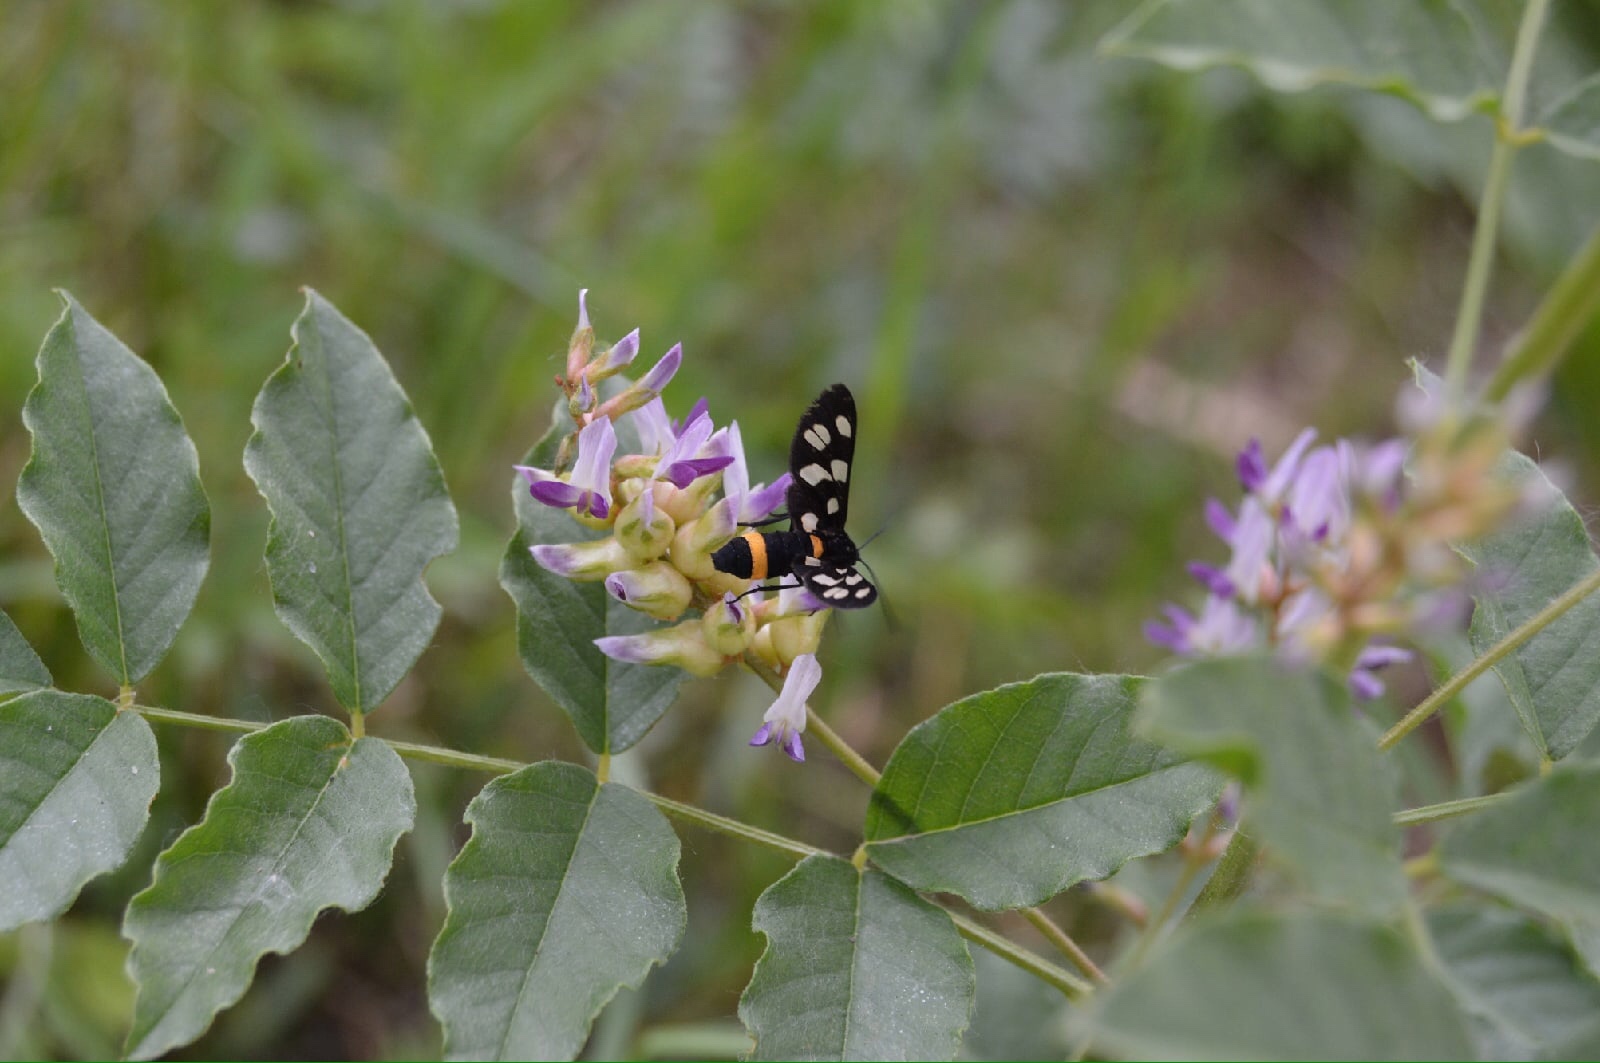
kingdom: Animalia
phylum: Arthropoda
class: Insecta
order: Lepidoptera
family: Erebidae
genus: Amata
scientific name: Amata caspia
